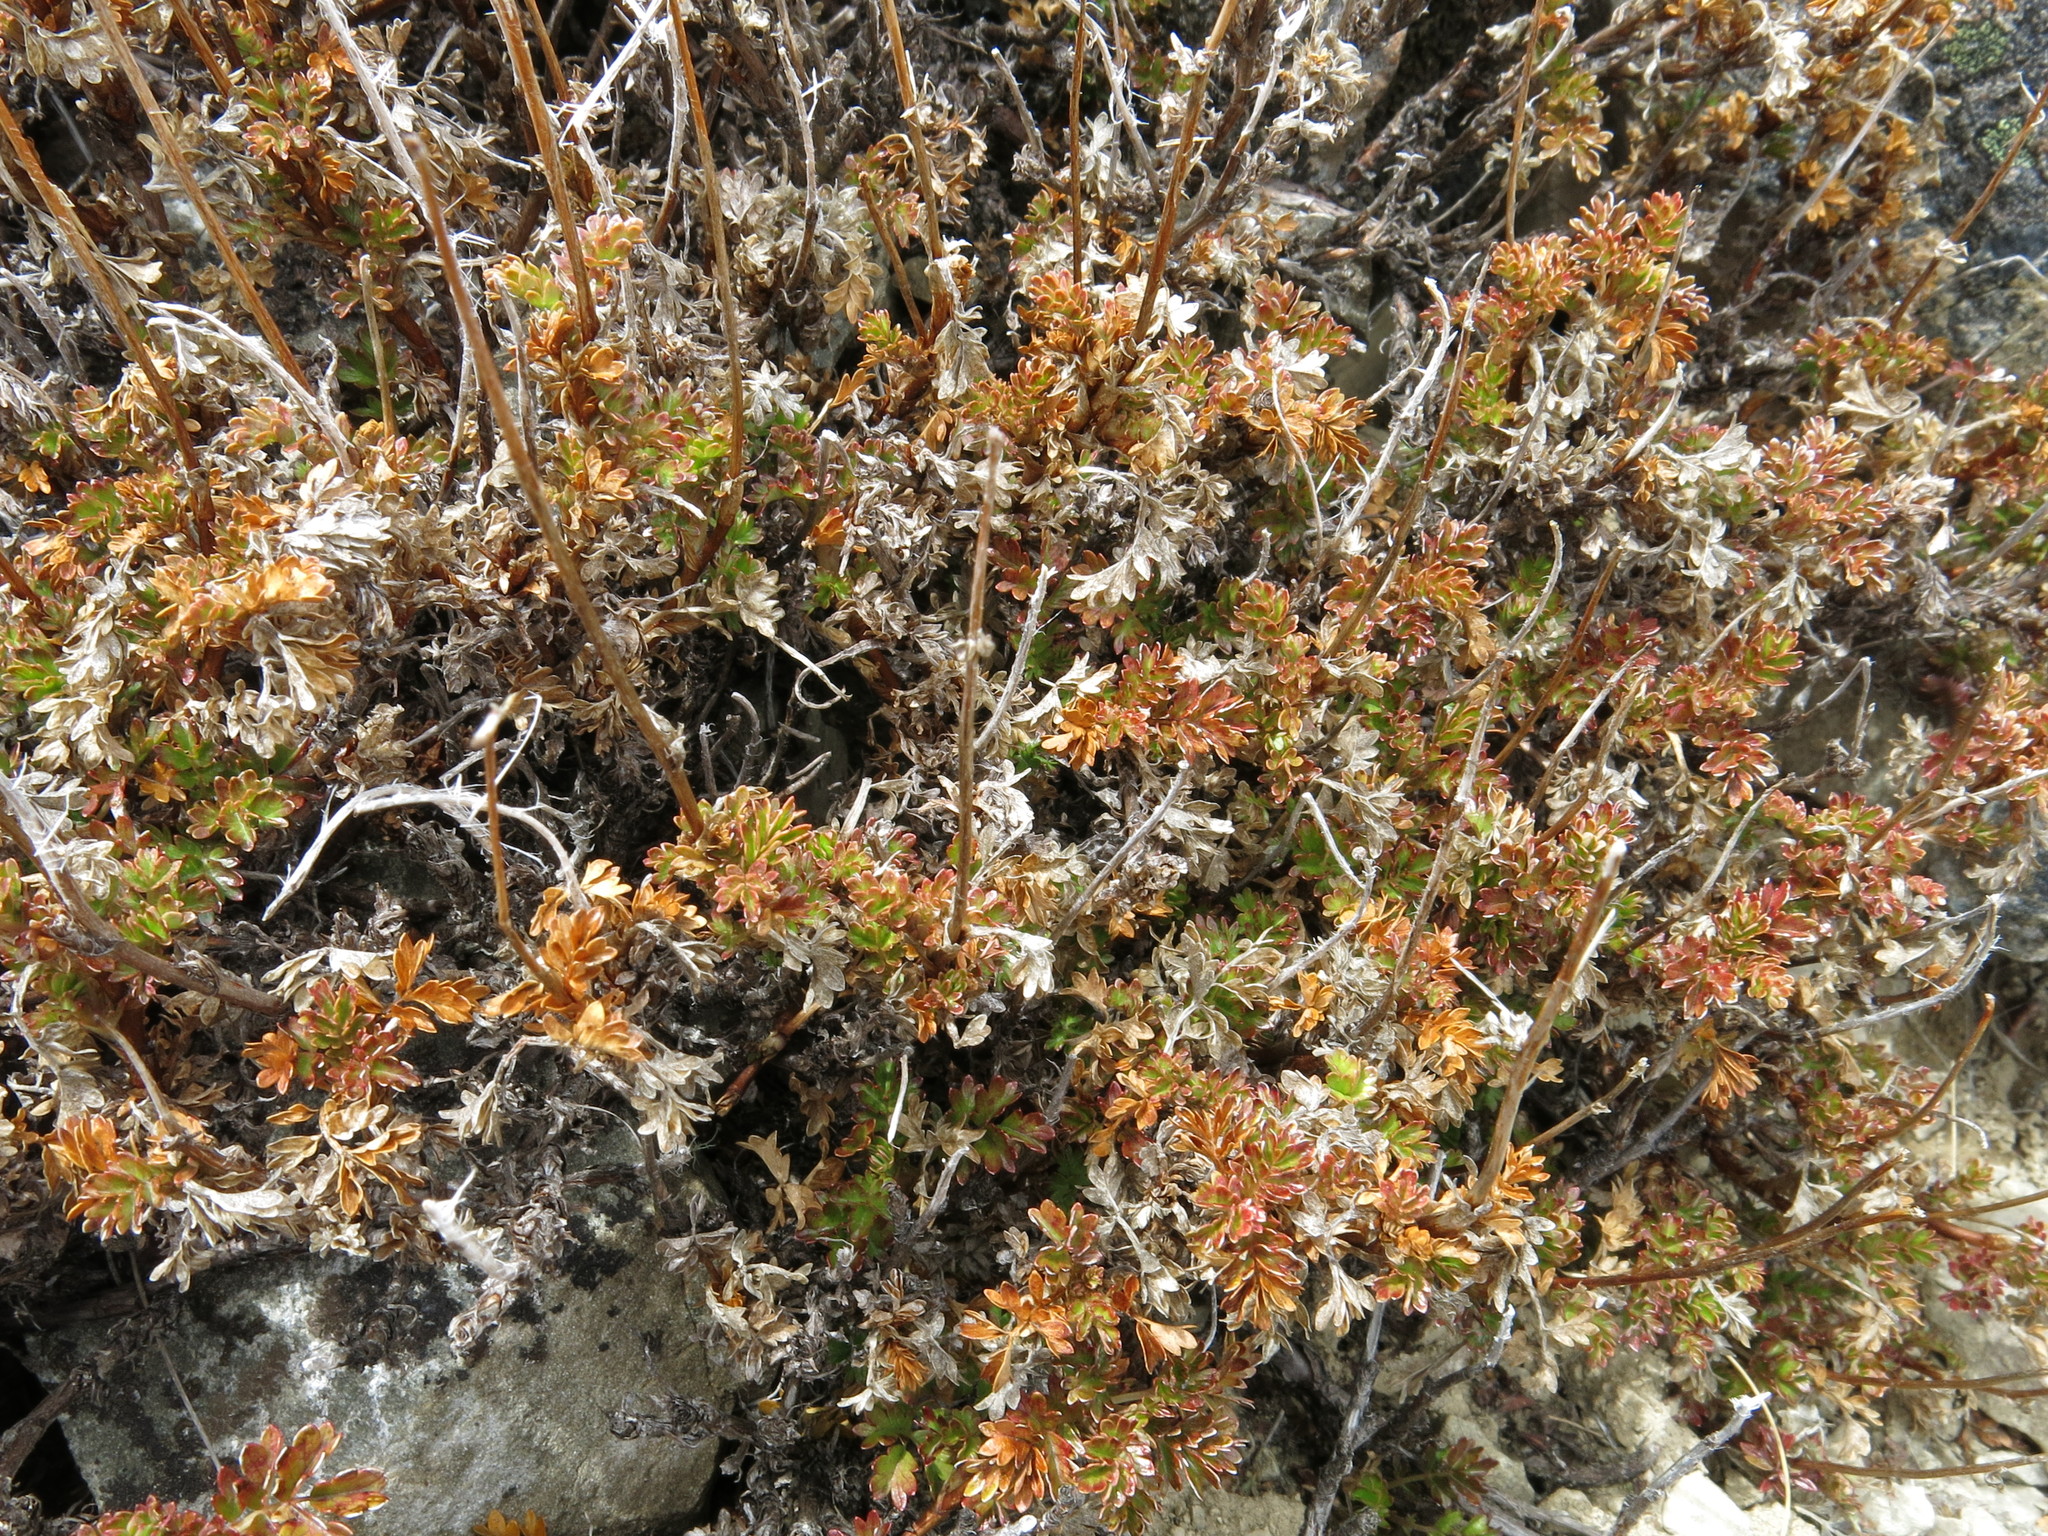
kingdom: Plantae
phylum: Tracheophyta
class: Magnoliopsida
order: Rosales
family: Rosaceae
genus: Acaena
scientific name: Acaena glabra
